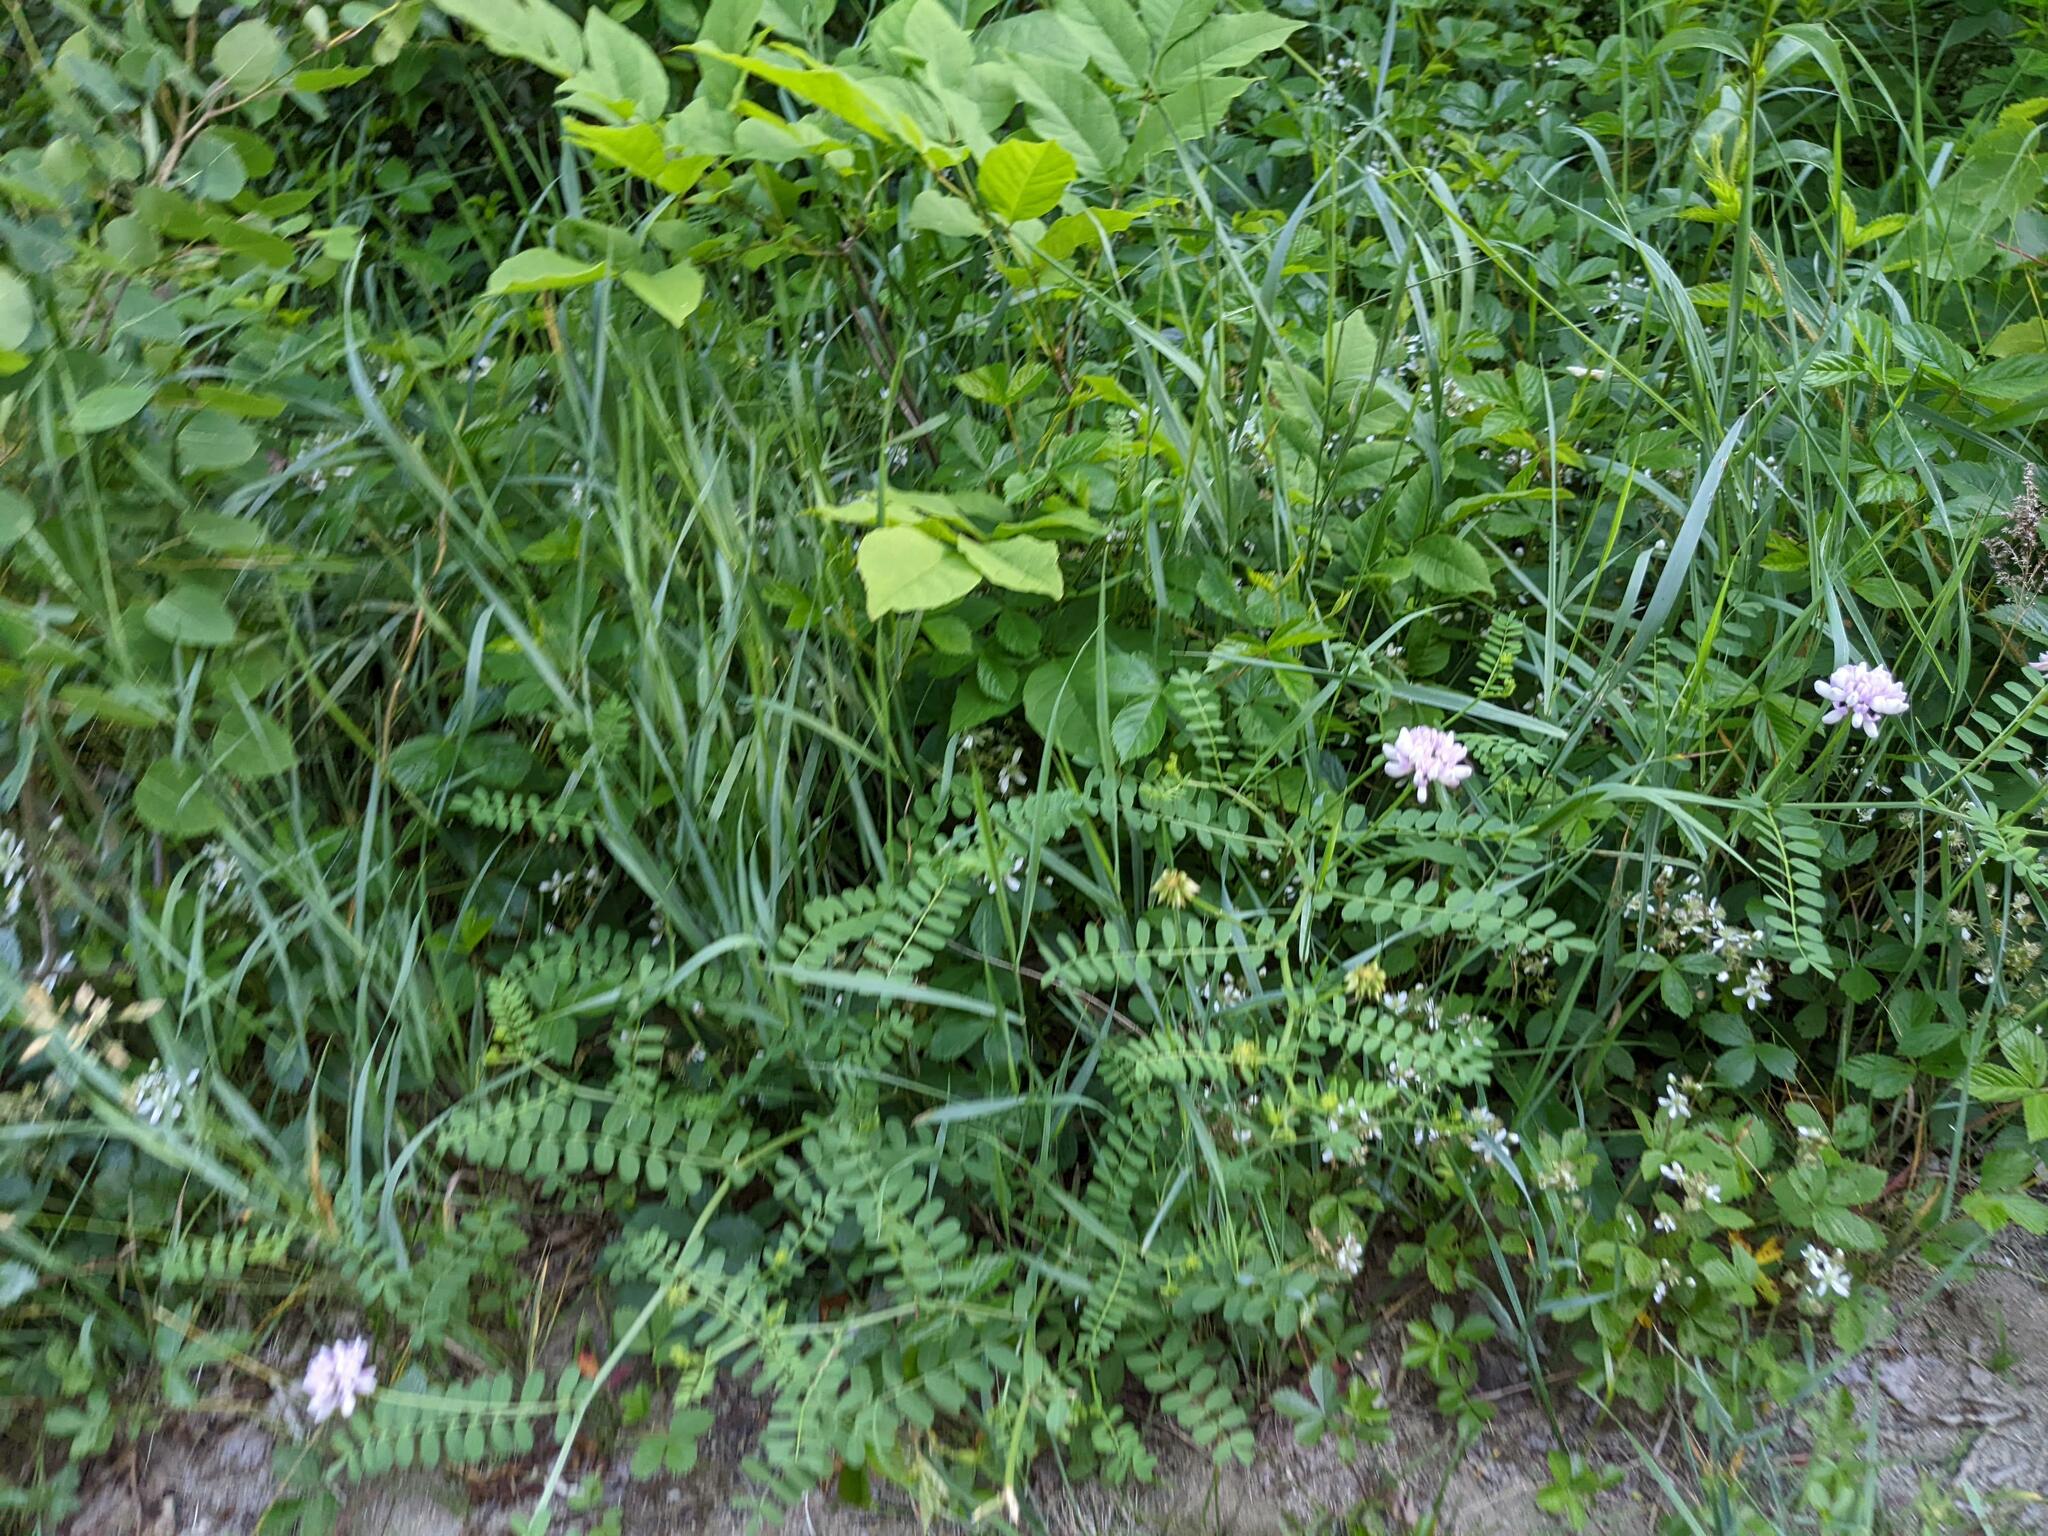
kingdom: Plantae
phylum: Tracheophyta
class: Magnoliopsida
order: Fabales
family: Fabaceae
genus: Coronilla
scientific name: Coronilla varia
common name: Crownvetch
